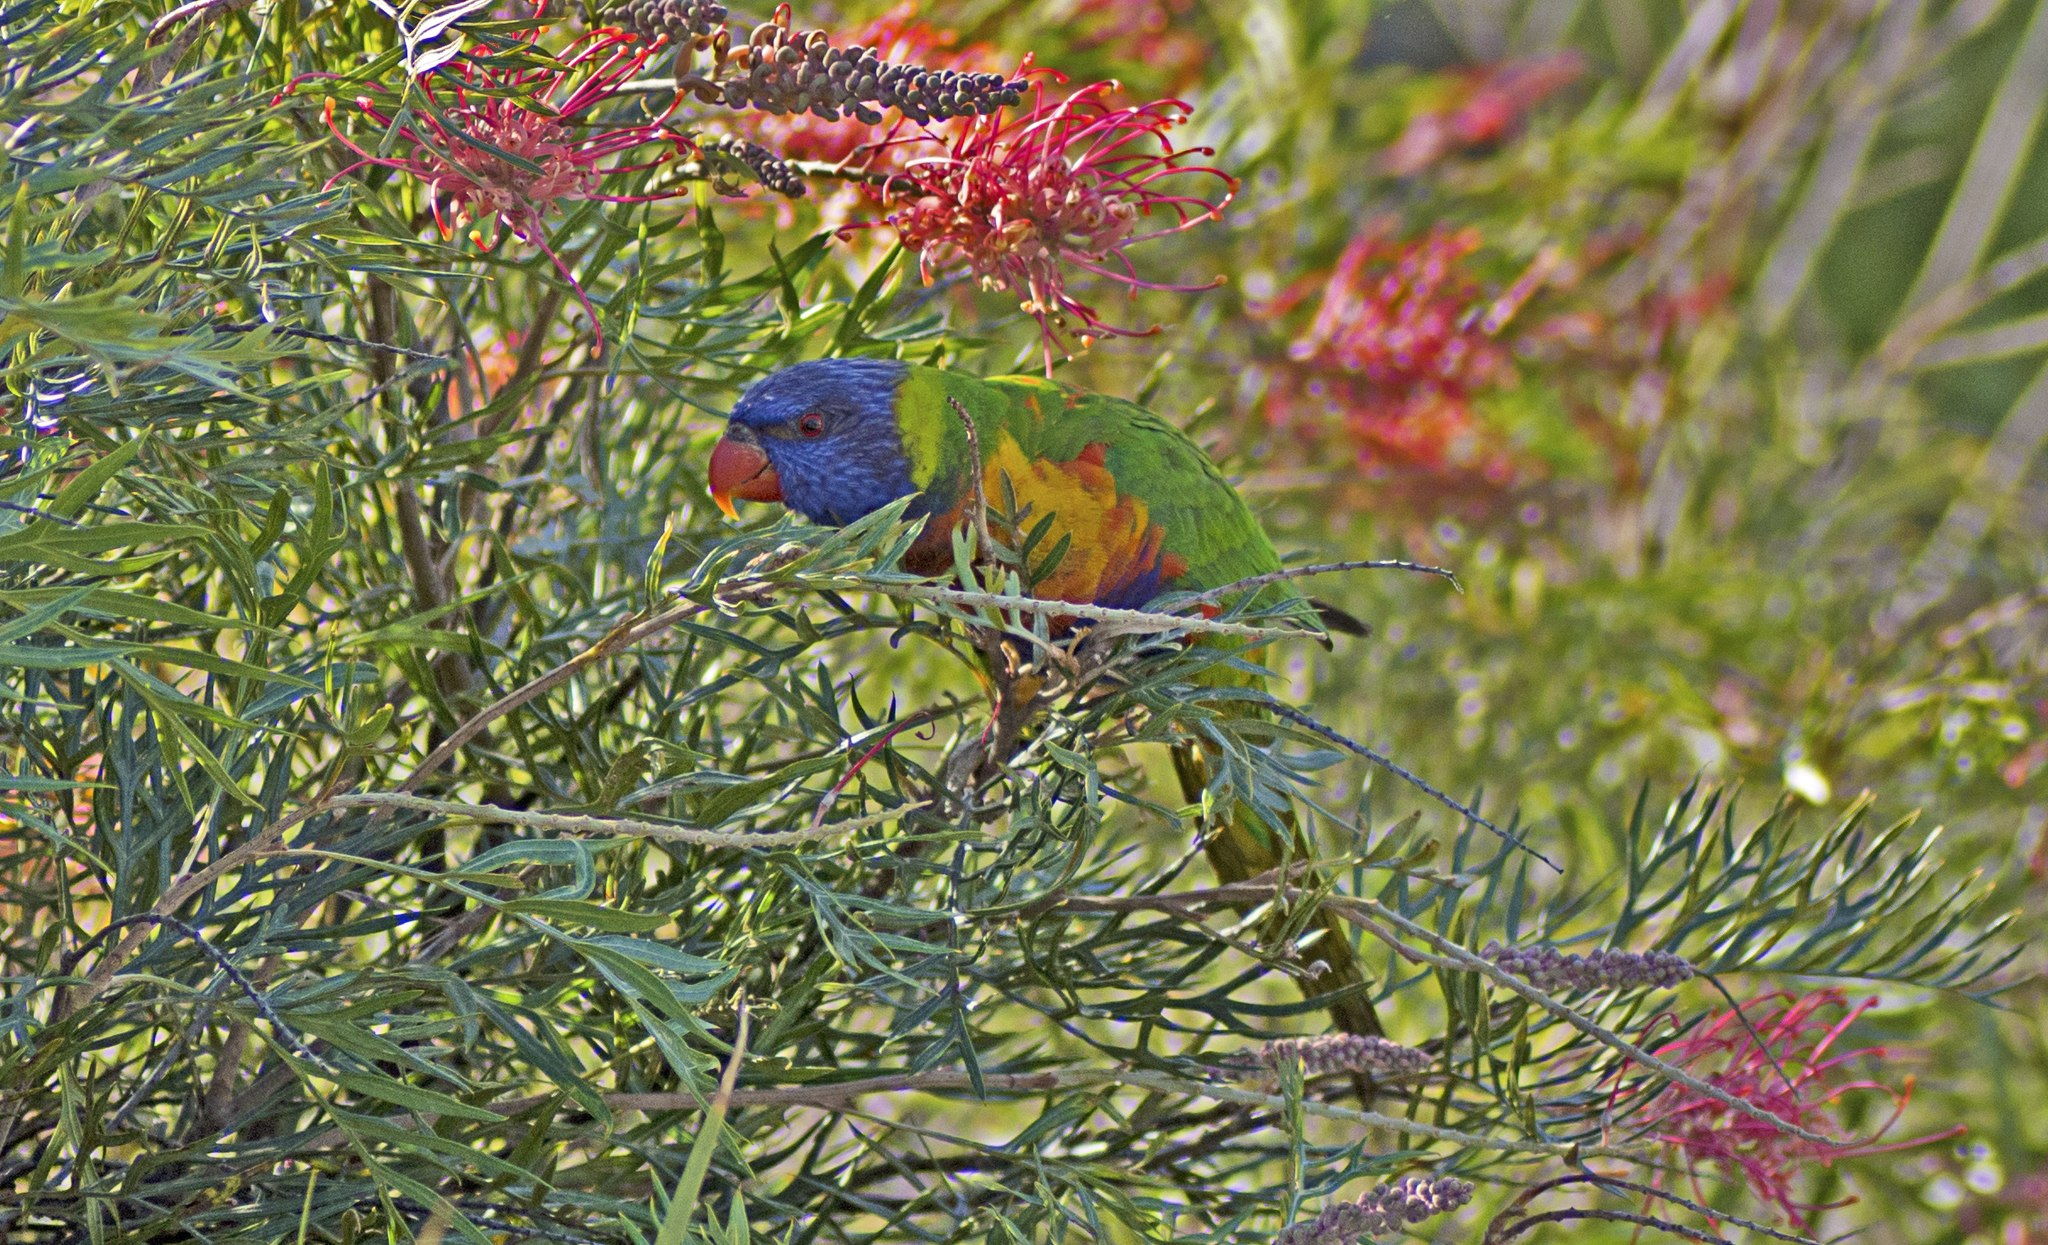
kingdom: Animalia
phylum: Chordata
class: Aves
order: Psittaciformes
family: Psittacidae
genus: Trichoglossus
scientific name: Trichoglossus haematodus
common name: Coconut lorikeet
